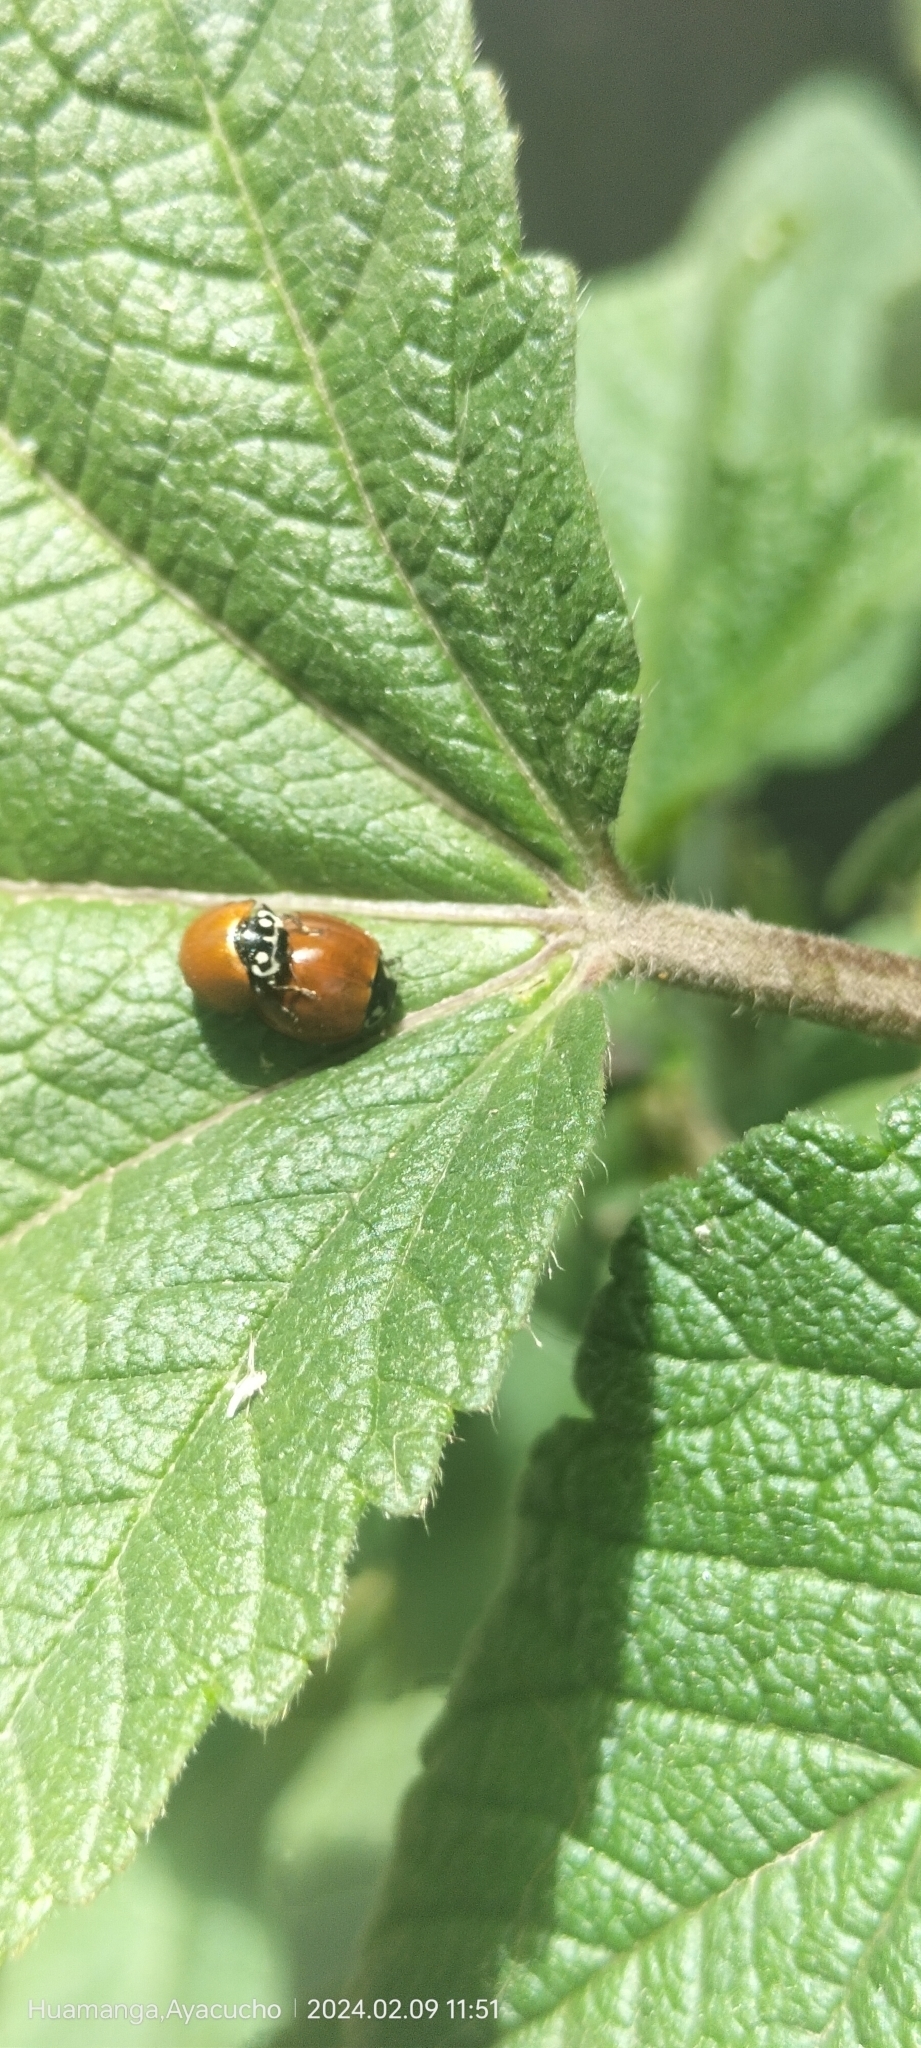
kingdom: Animalia
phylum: Arthropoda
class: Insecta
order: Coleoptera
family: Coccinellidae
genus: Cycloneda
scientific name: Cycloneda sanguinea
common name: Ladybird beetle
